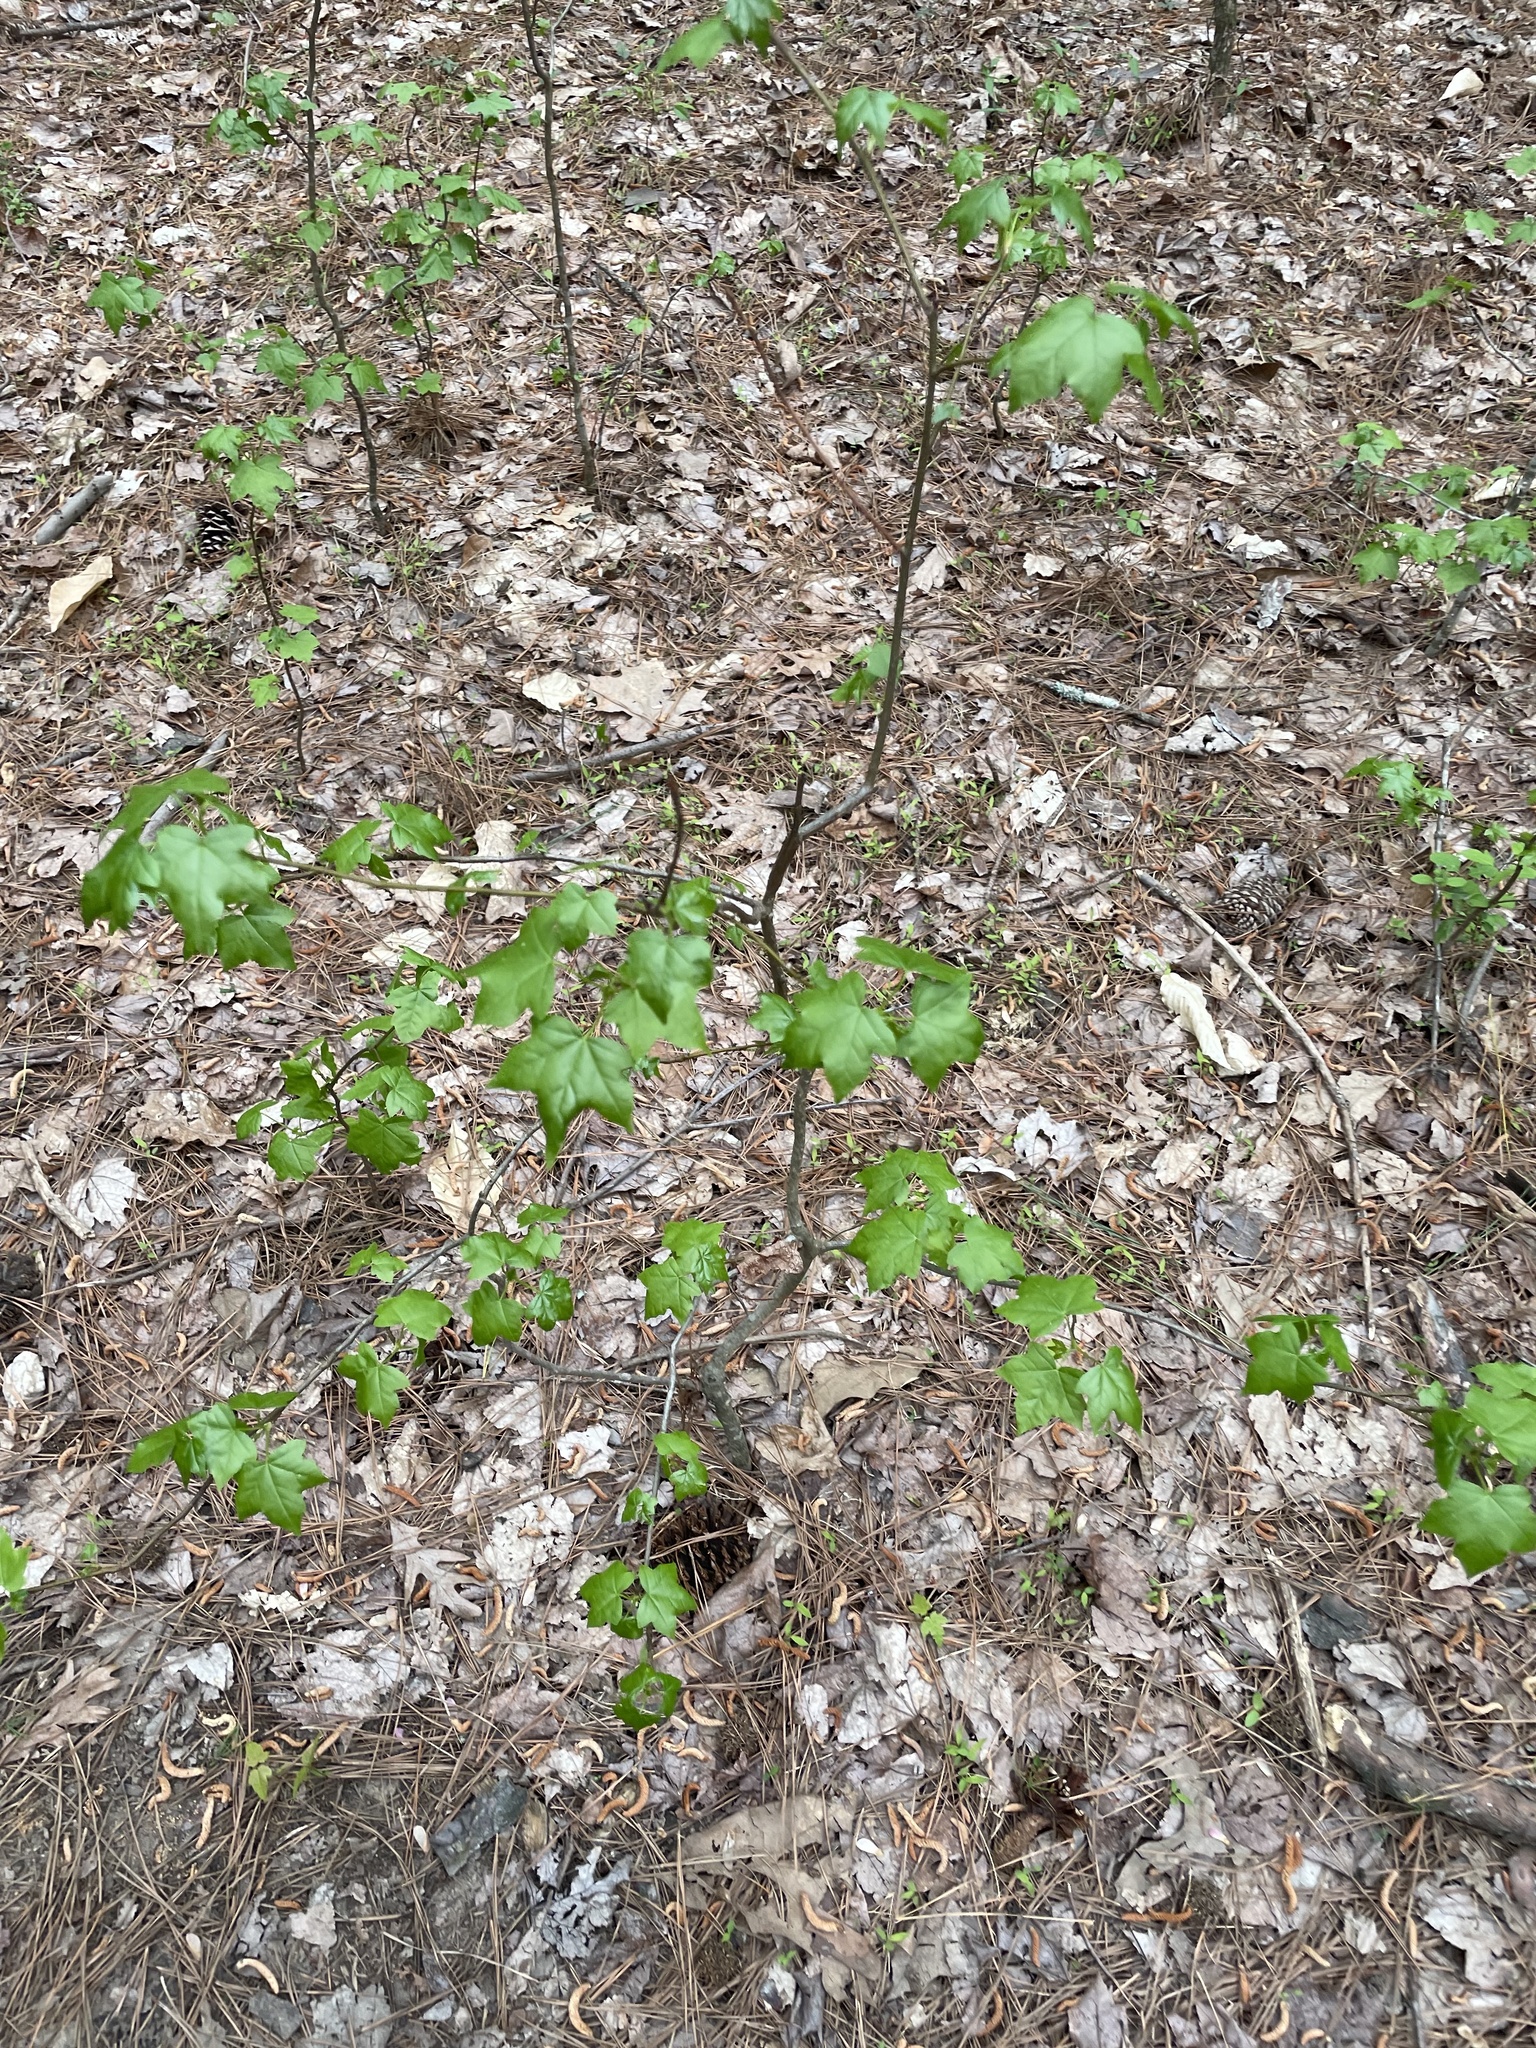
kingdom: Plantae
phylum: Tracheophyta
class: Magnoliopsida
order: Saxifragales
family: Altingiaceae
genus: Liquidambar
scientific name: Liquidambar styraciflua
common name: Sweet gum
